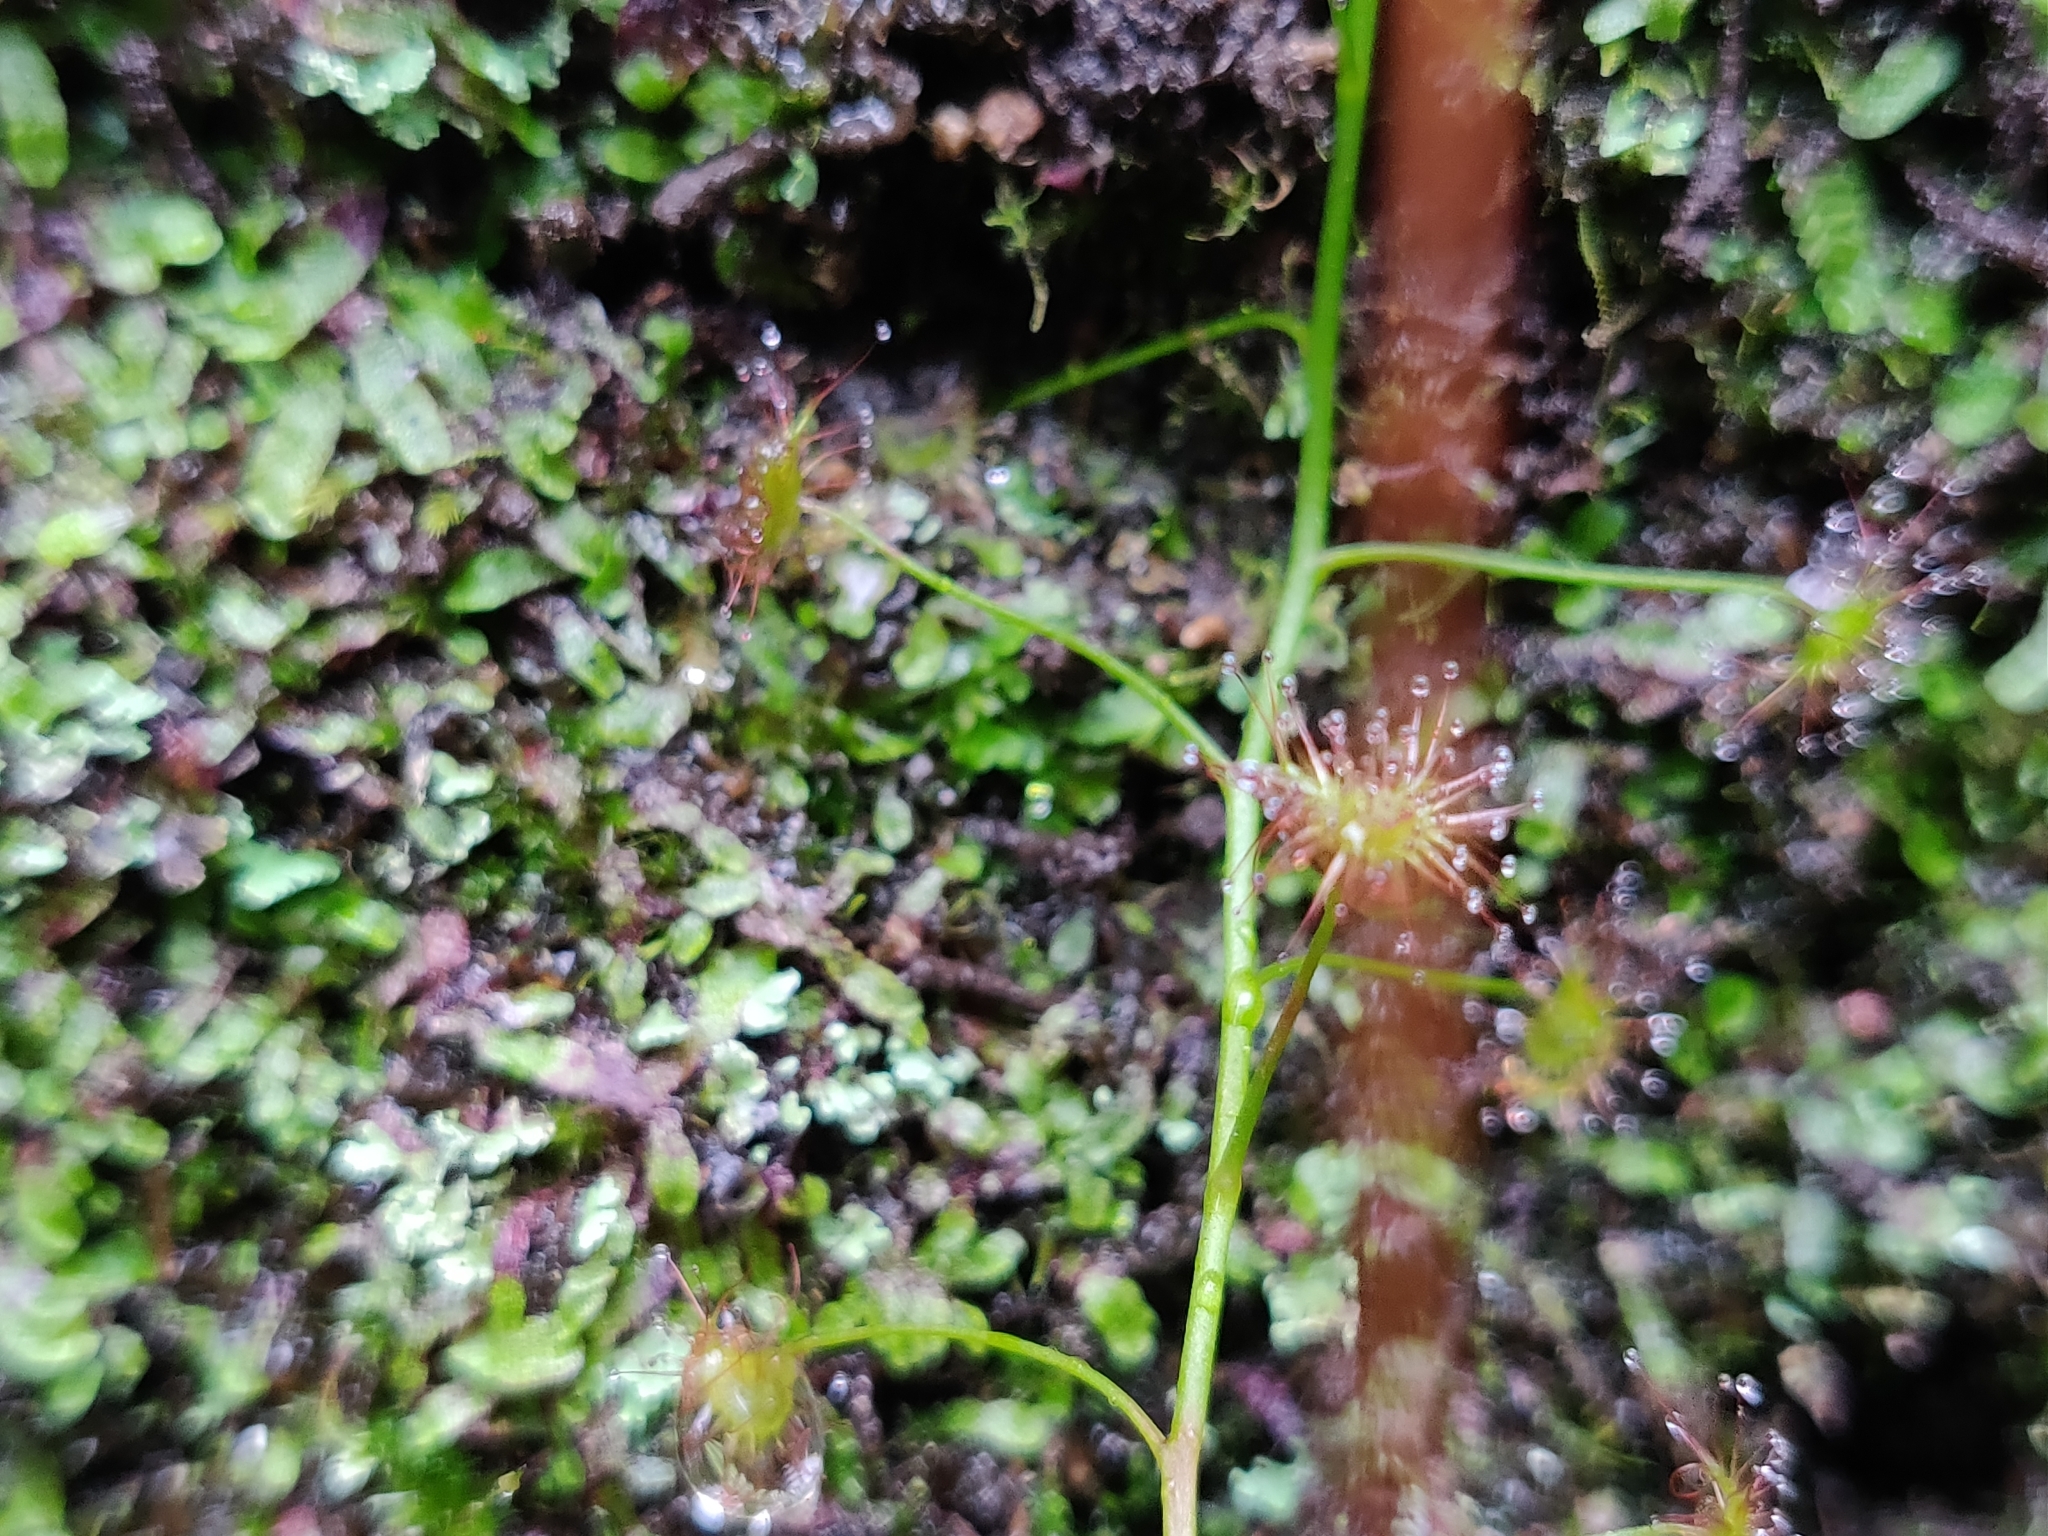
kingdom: Plantae
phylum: Tracheophyta
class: Magnoliopsida
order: Caryophyllales
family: Droseraceae
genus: Drosera
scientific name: Drosera peltata
